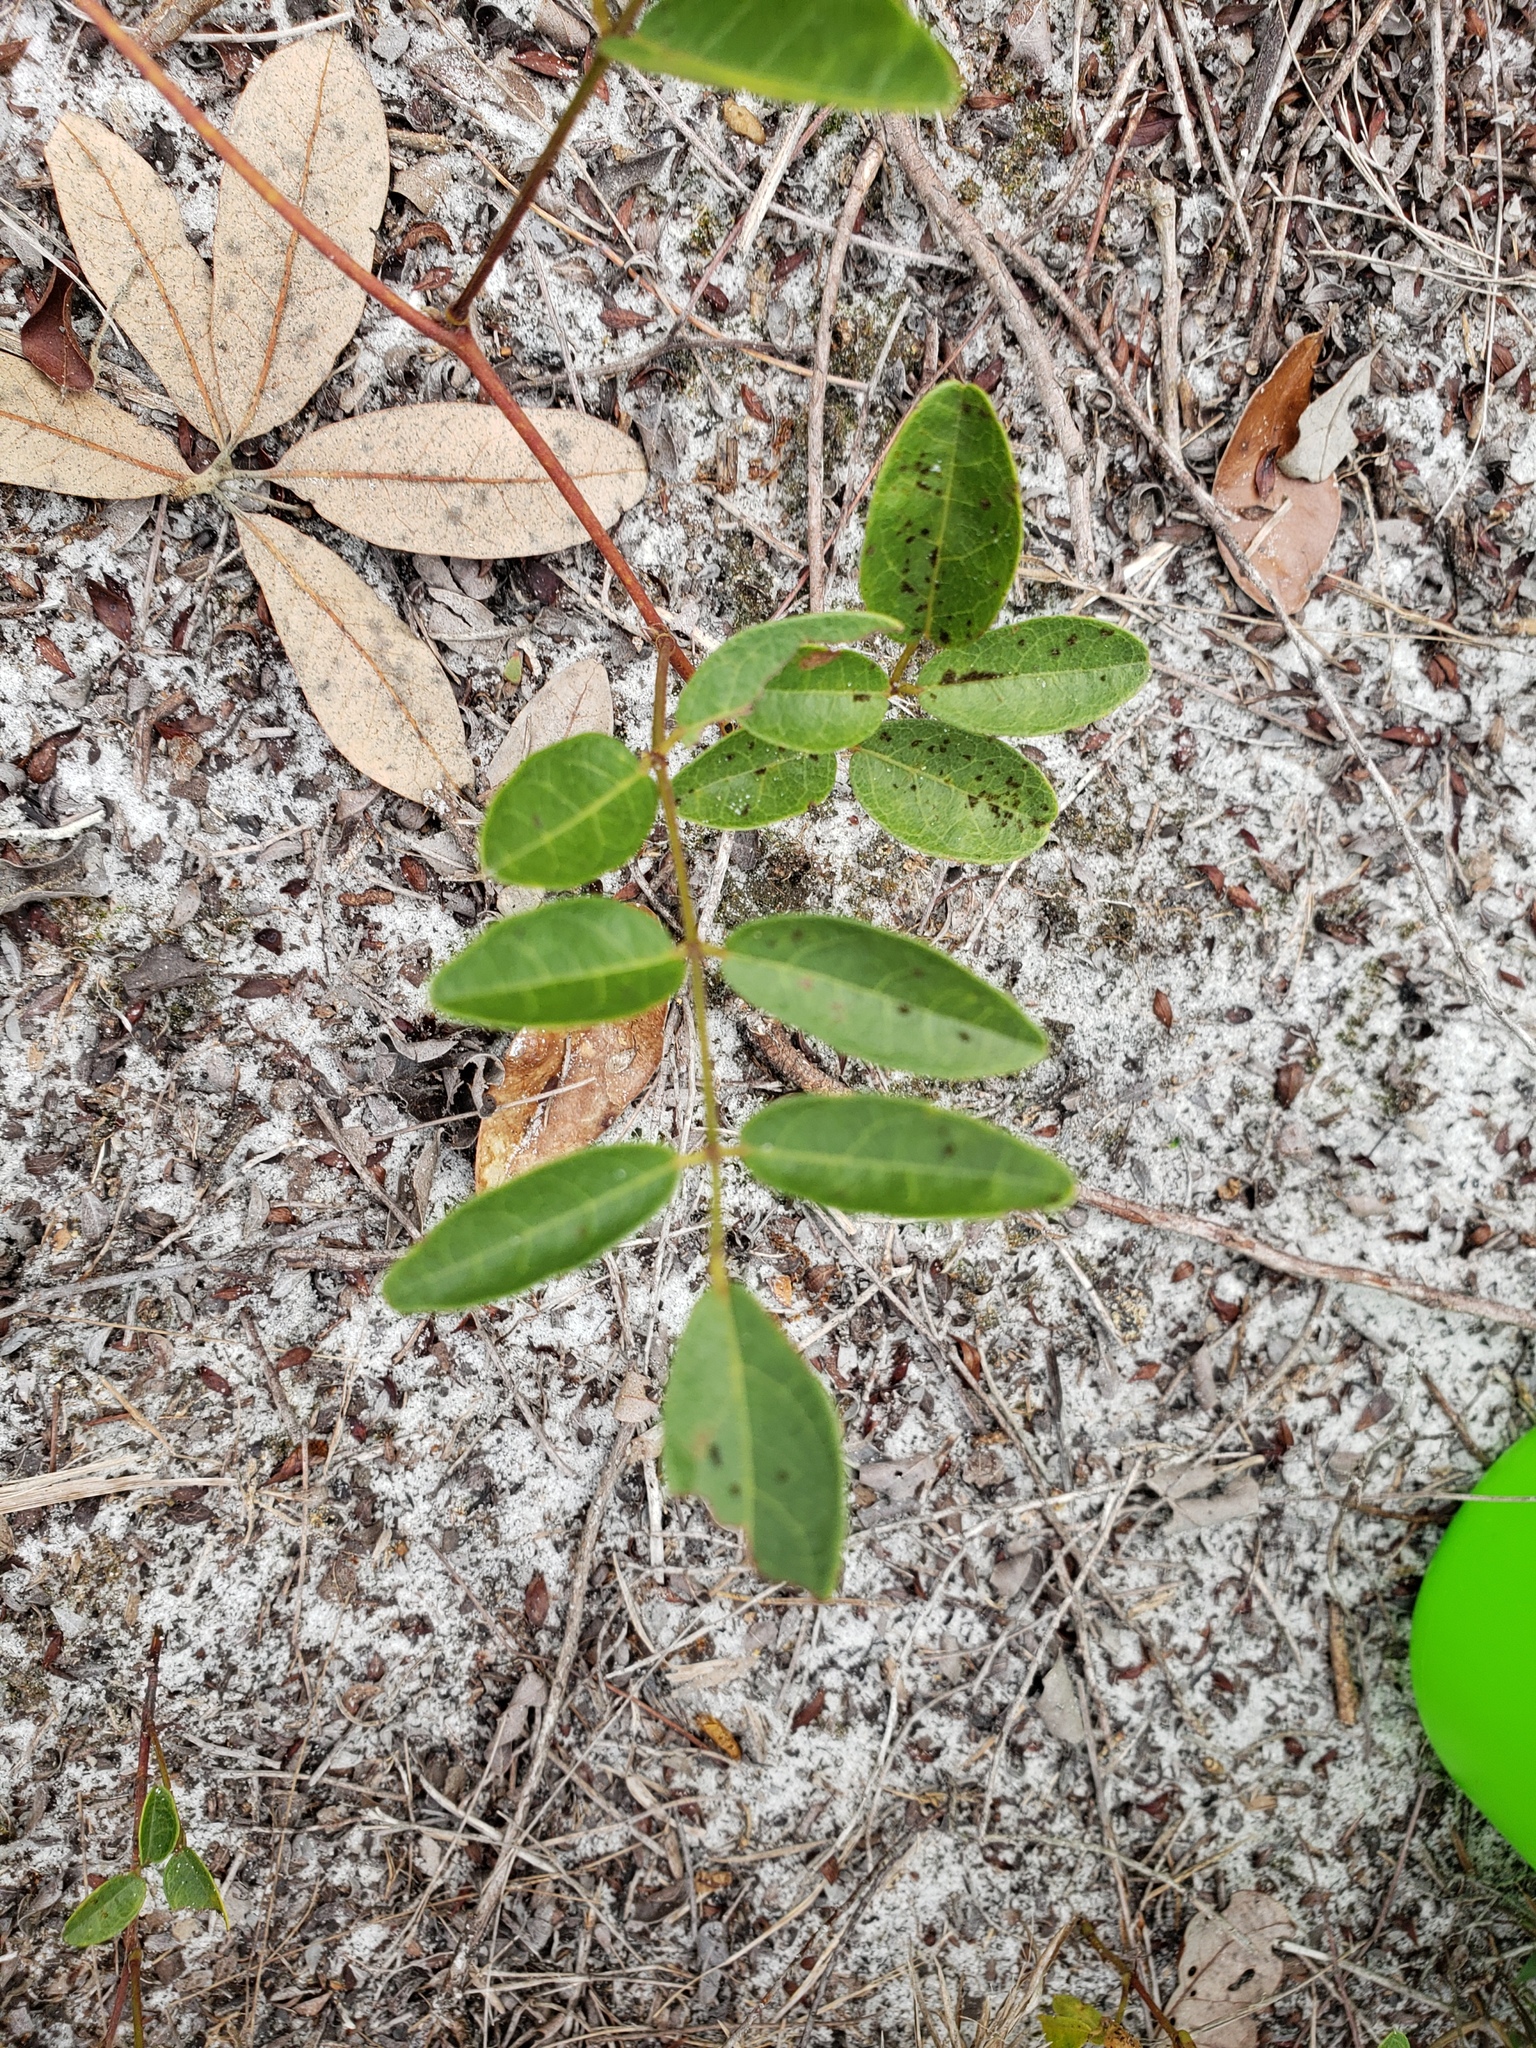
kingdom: Plantae
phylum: Tracheophyta
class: Magnoliopsida
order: Fabales
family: Fabaceae
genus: Galactia
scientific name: Galactia elliottii
